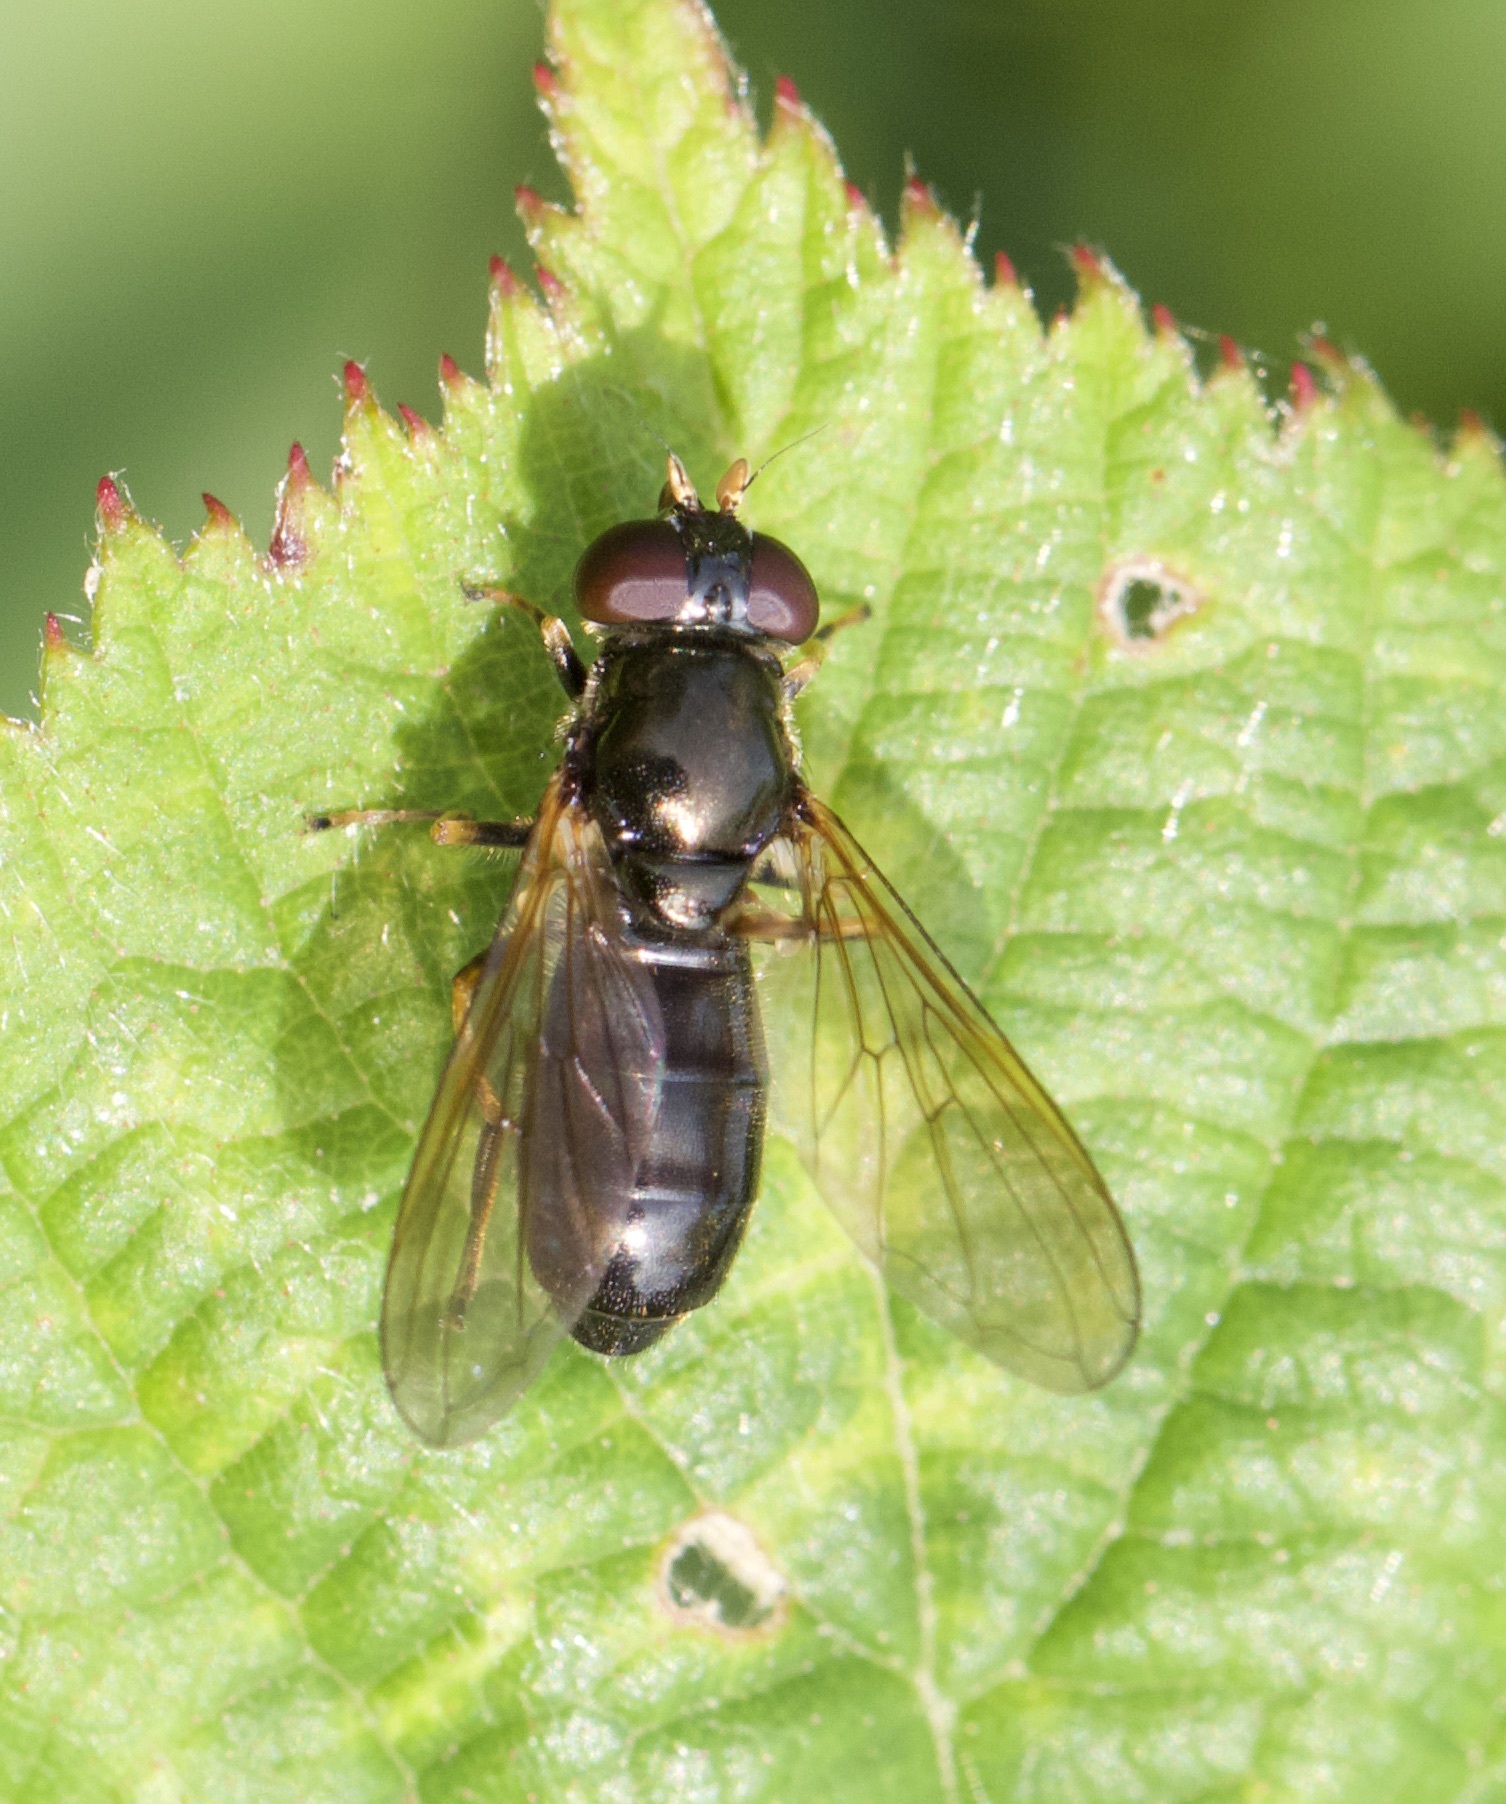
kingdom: Animalia
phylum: Arthropoda
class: Insecta
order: Diptera
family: Syrphidae
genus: Cheilosia
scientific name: Cheilosia pagana
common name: Hover fly
